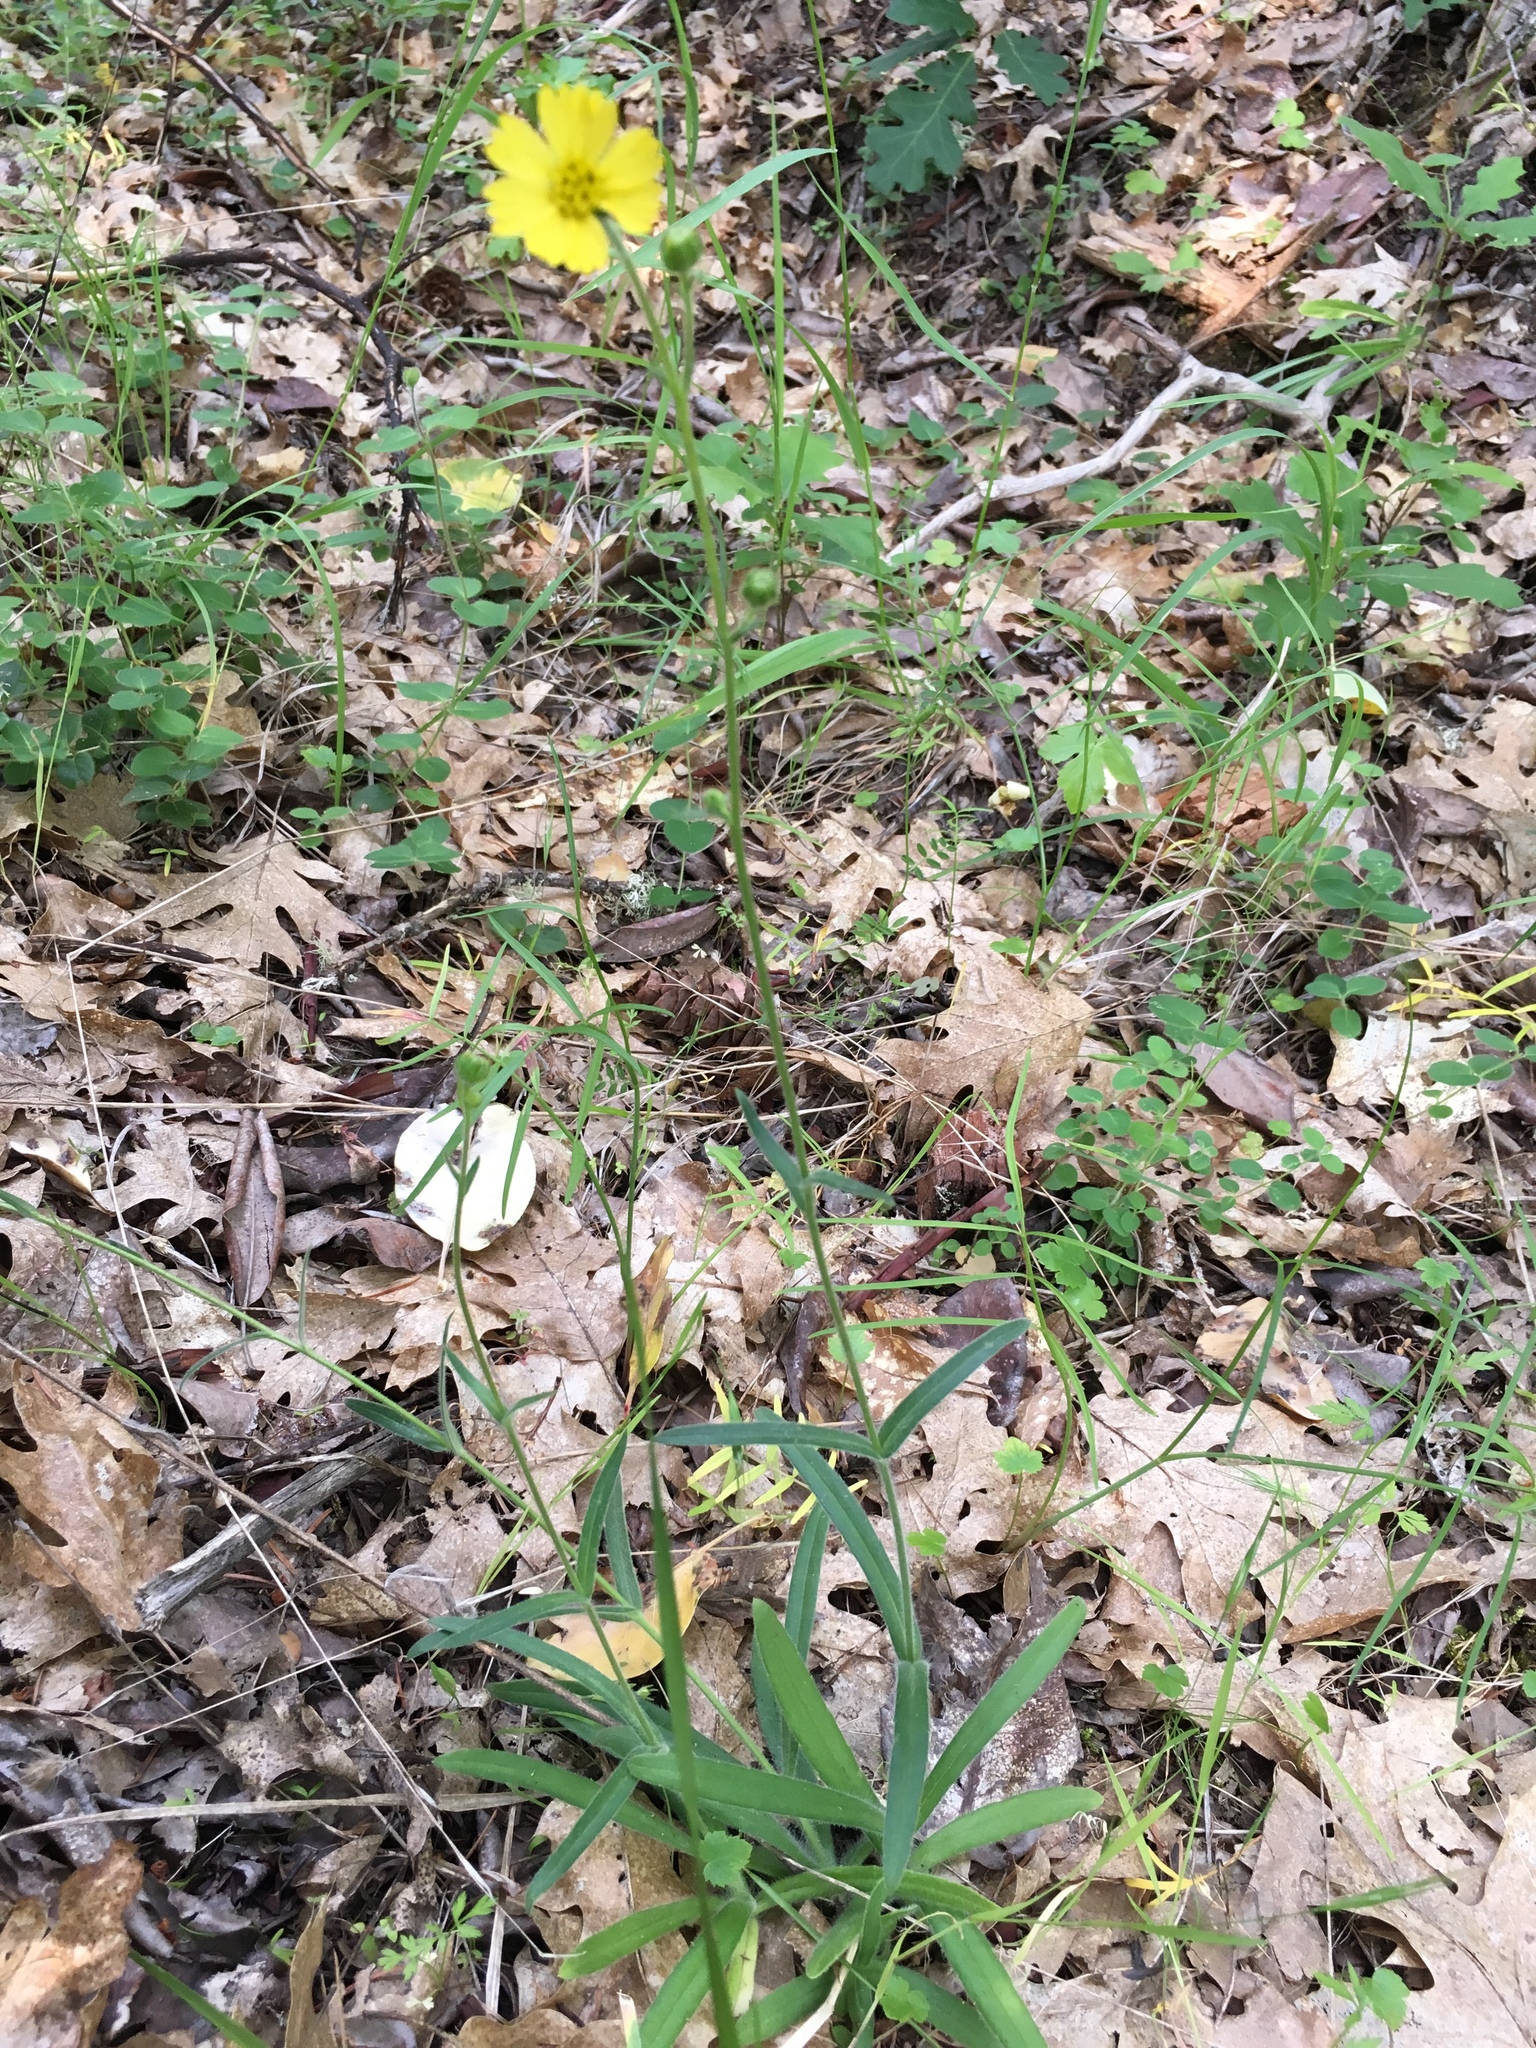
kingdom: Plantae
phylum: Tracheophyta
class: Magnoliopsida
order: Asterales
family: Asteraceae
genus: Anisocarpus
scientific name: Anisocarpus madioides
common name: Woodland madia
